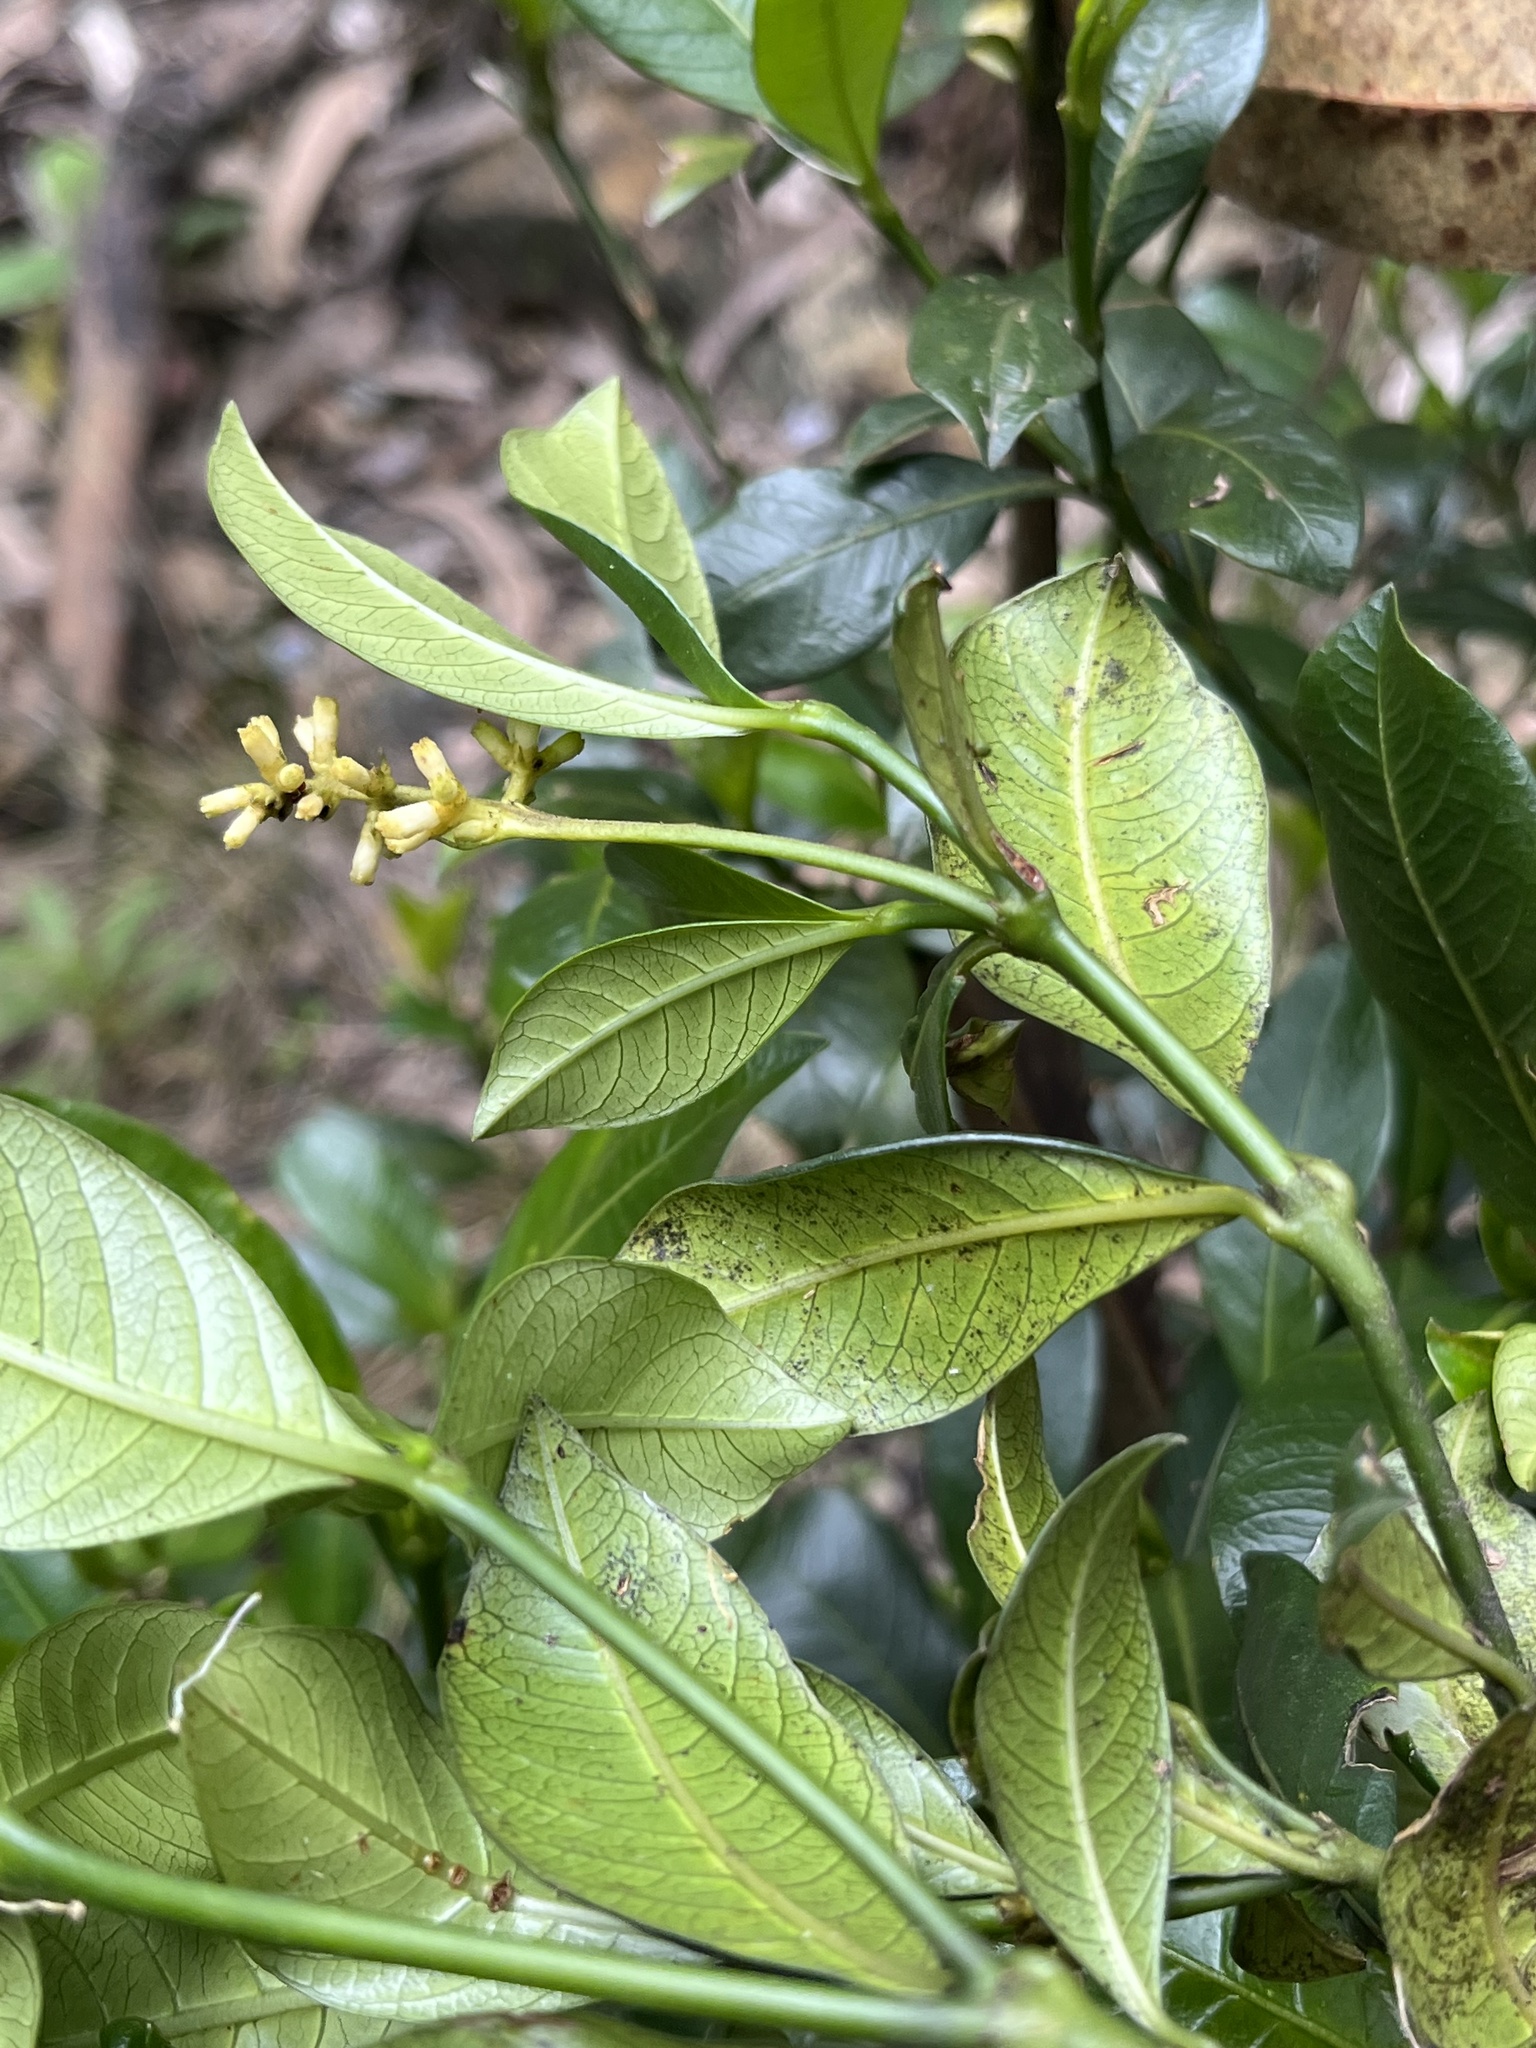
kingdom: Plantae
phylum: Tracheophyta
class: Magnoliopsida
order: Gentianales
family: Rubiaceae
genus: Palicourea
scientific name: Palicourea boqueronensis
